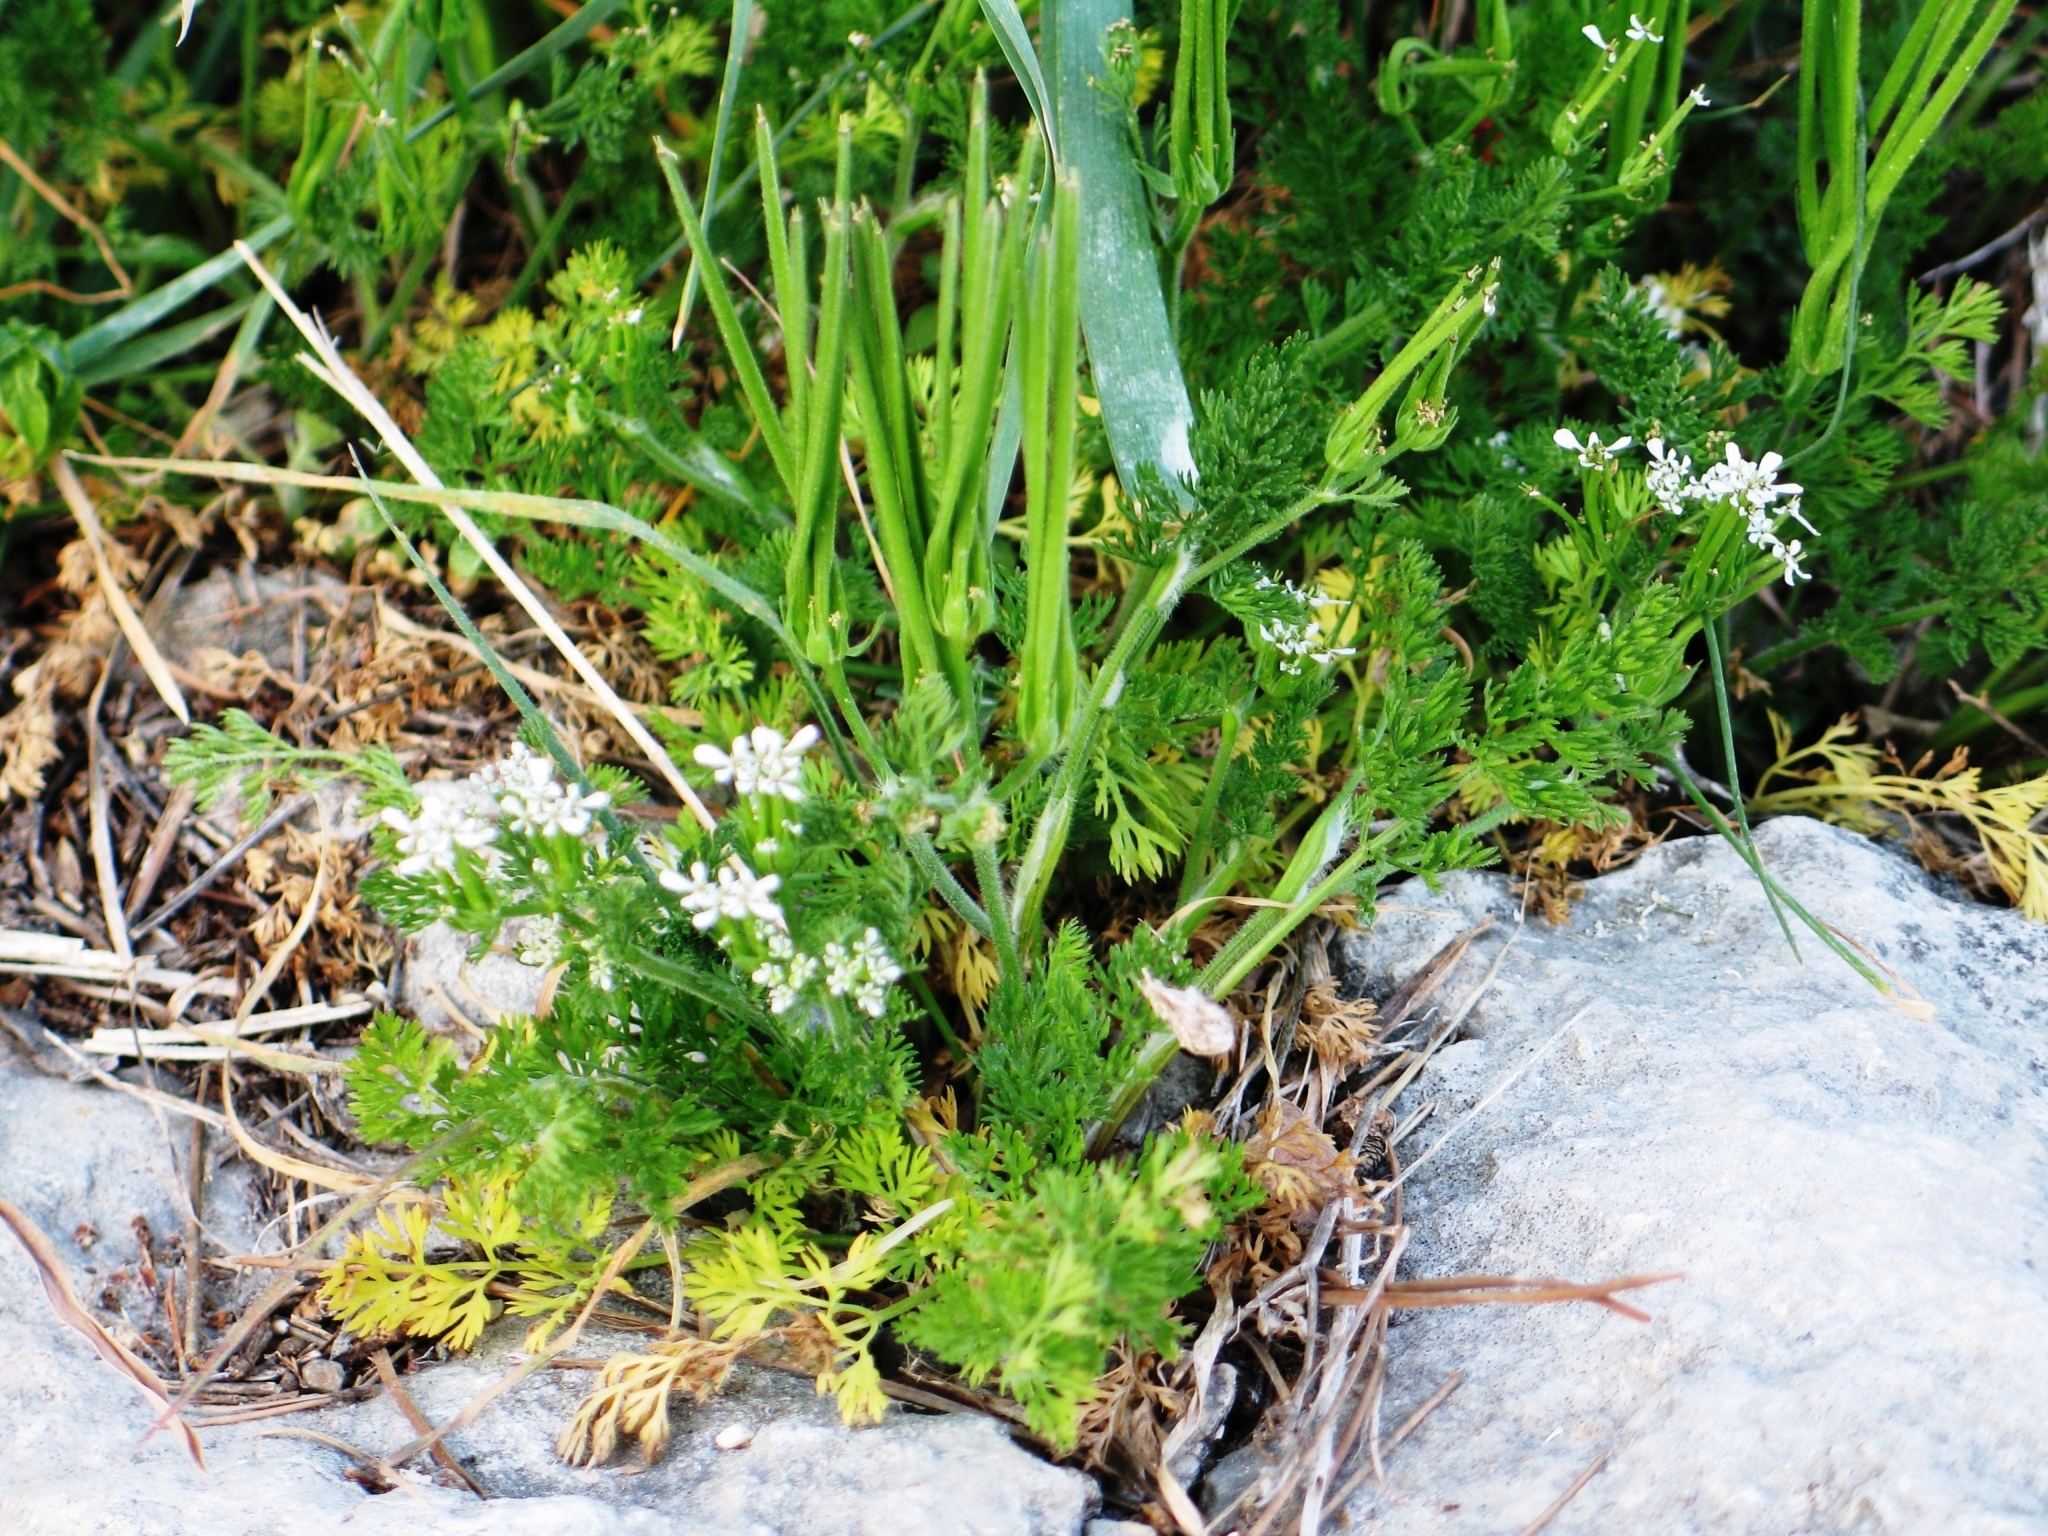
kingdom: Plantae
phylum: Tracheophyta
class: Magnoliopsida
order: Apiales
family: Apiaceae
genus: Scandix
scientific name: Scandix pecten-veneris
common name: Shepherd's-needle
